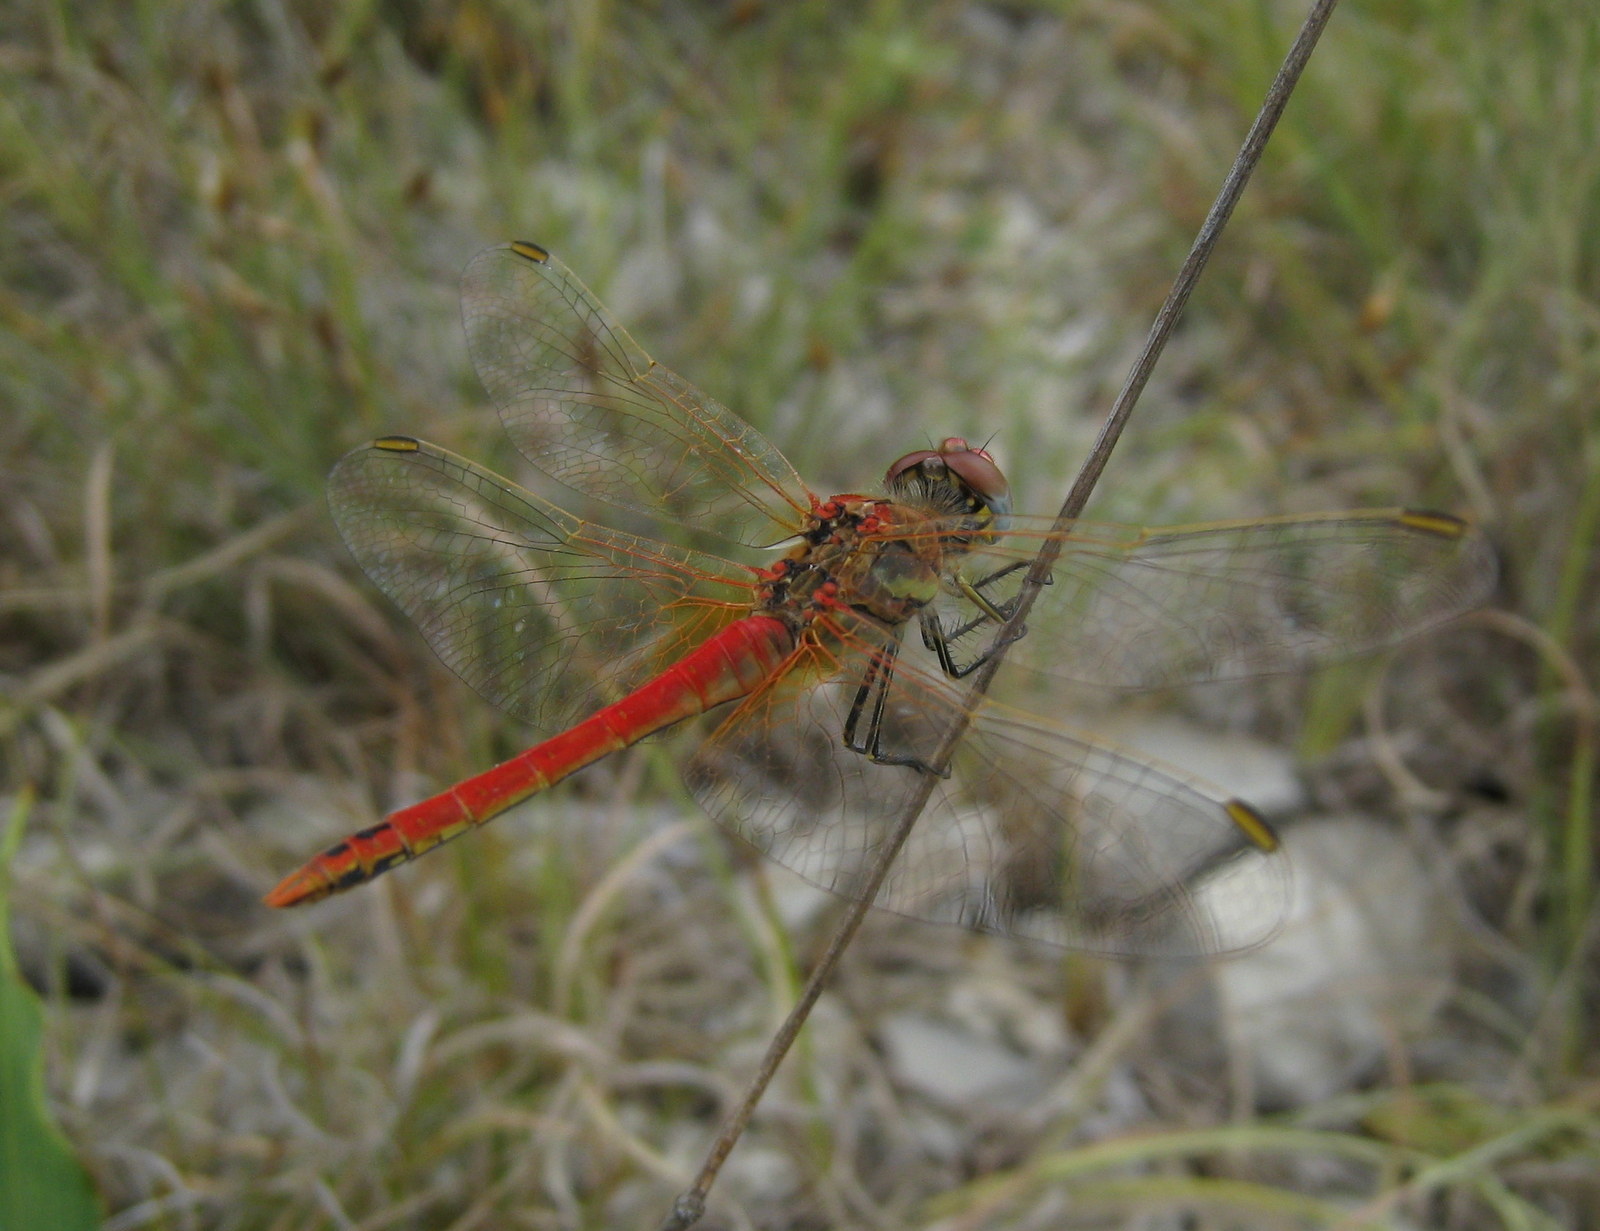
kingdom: Animalia
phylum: Arthropoda
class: Insecta
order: Odonata
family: Libellulidae
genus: Sympetrum
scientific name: Sympetrum fonscolombii
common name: Red-veined darter
